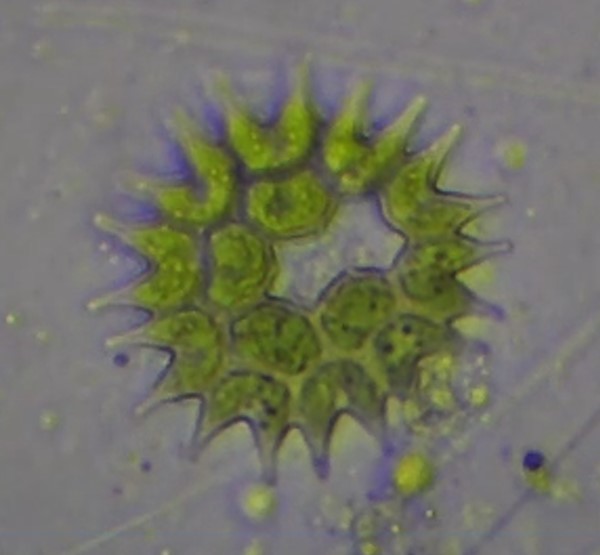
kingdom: Plantae
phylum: Chlorophyta
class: Chlorophyceae
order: Sphaeropleales
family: Hydrodictyaceae
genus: Pseudopediastrum
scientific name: Pseudopediastrum boryanum
